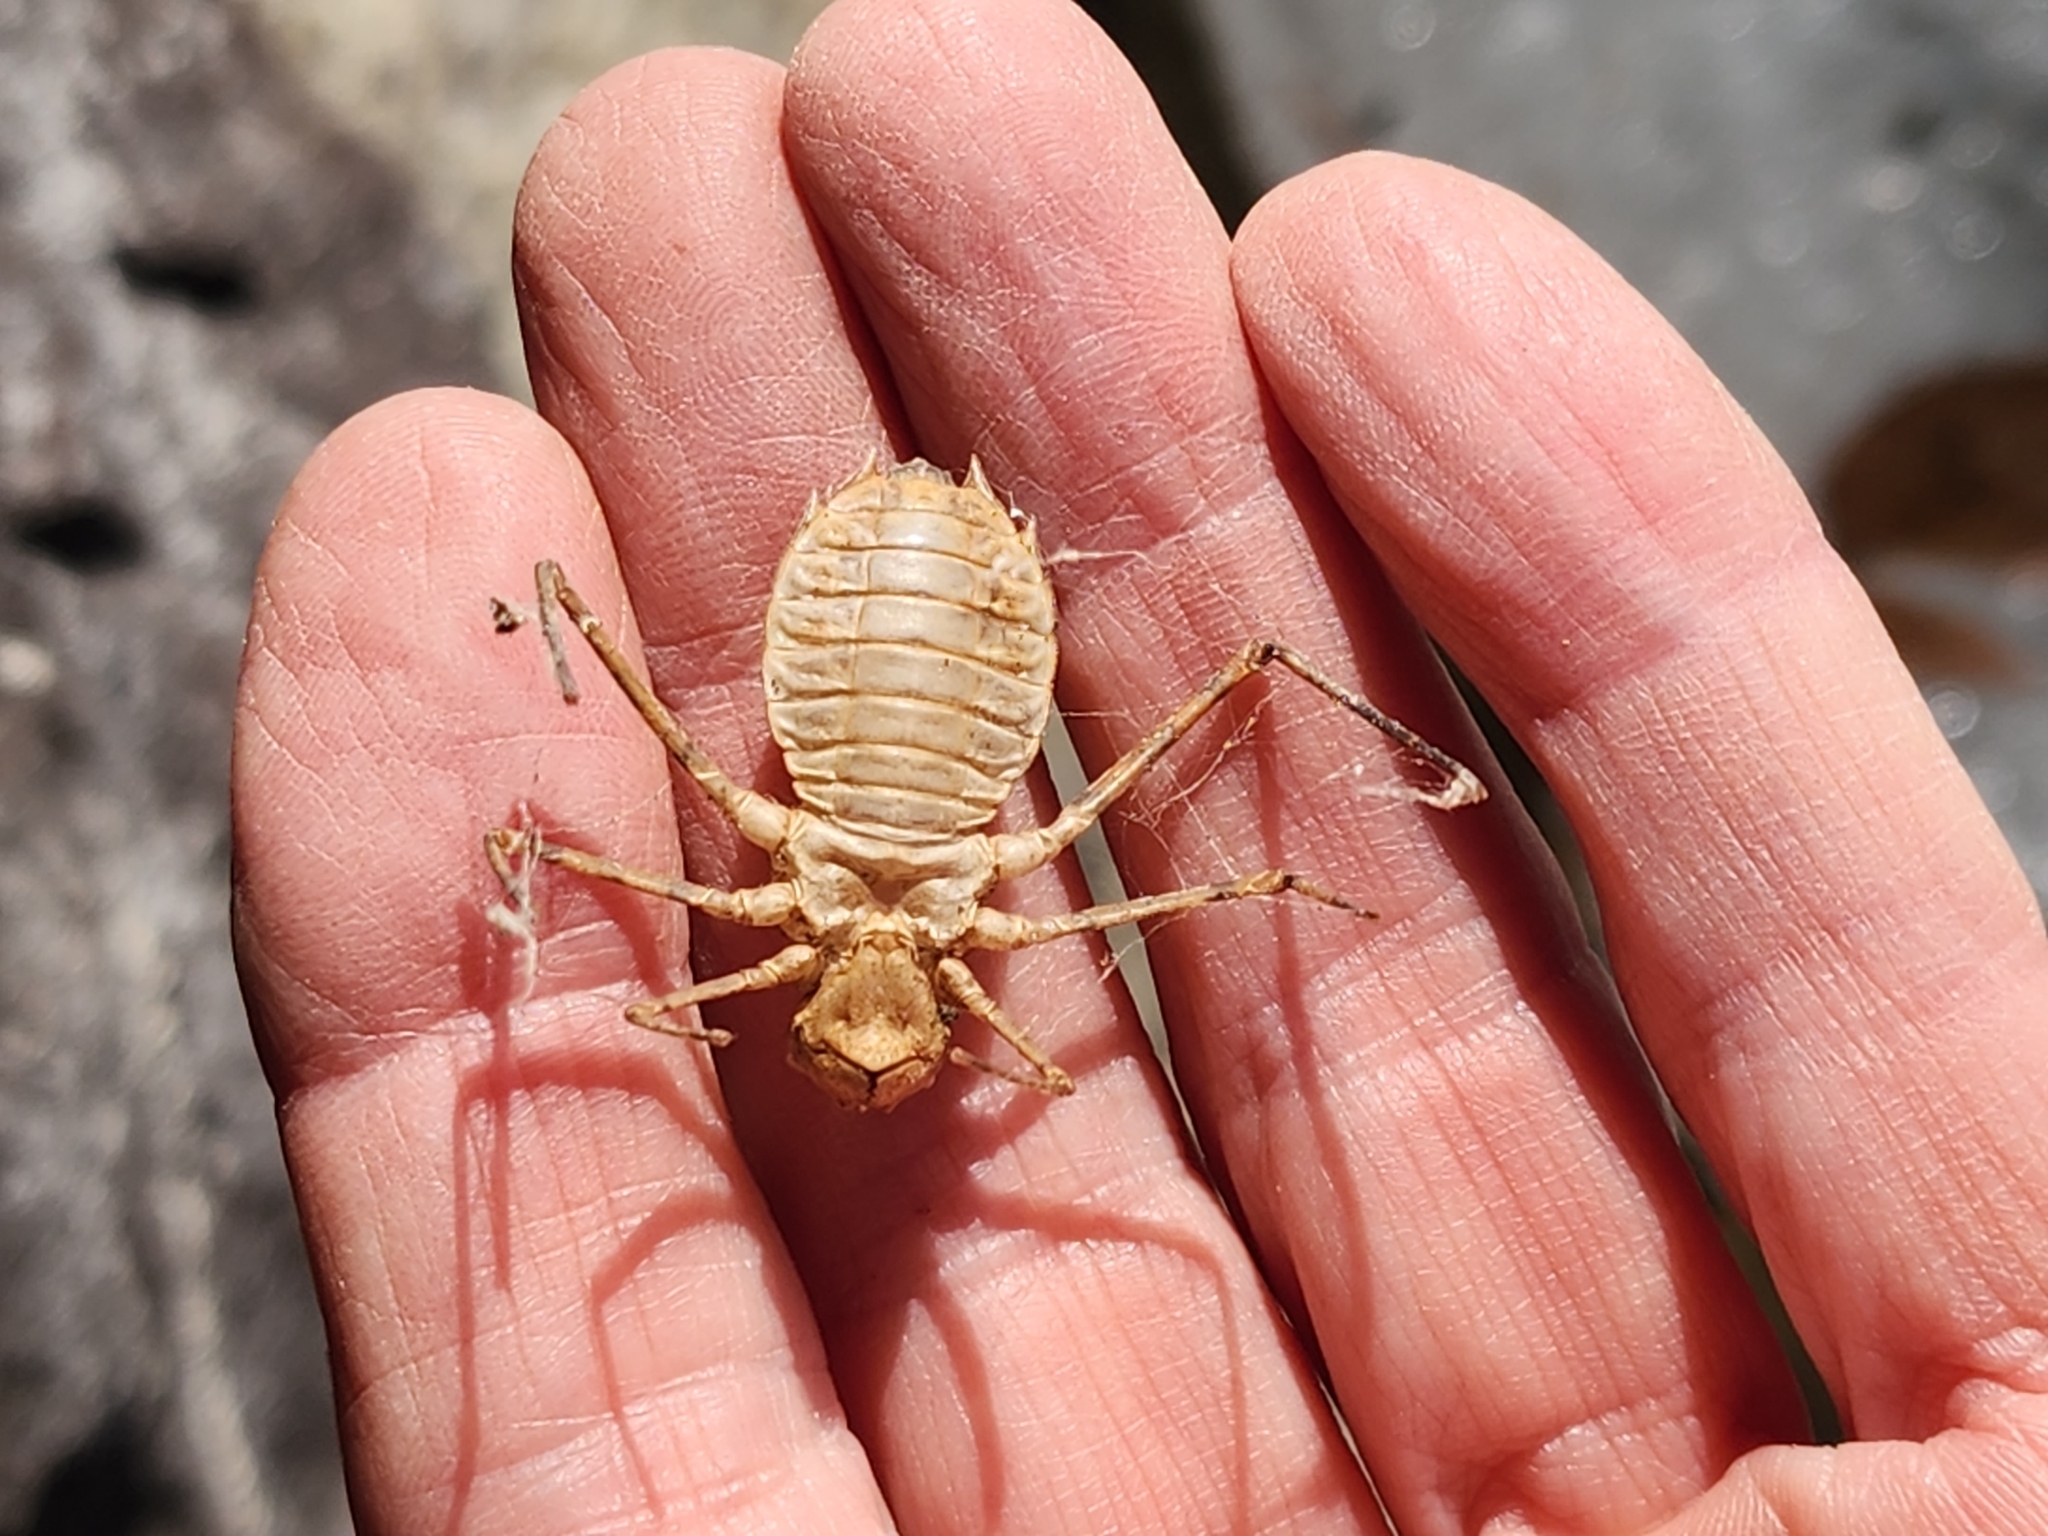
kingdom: Animalia
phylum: Arthropoda
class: Insecta
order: Odonata
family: Macromiidae
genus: Didymops
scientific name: Didymops transversa
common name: Stream cruiser
